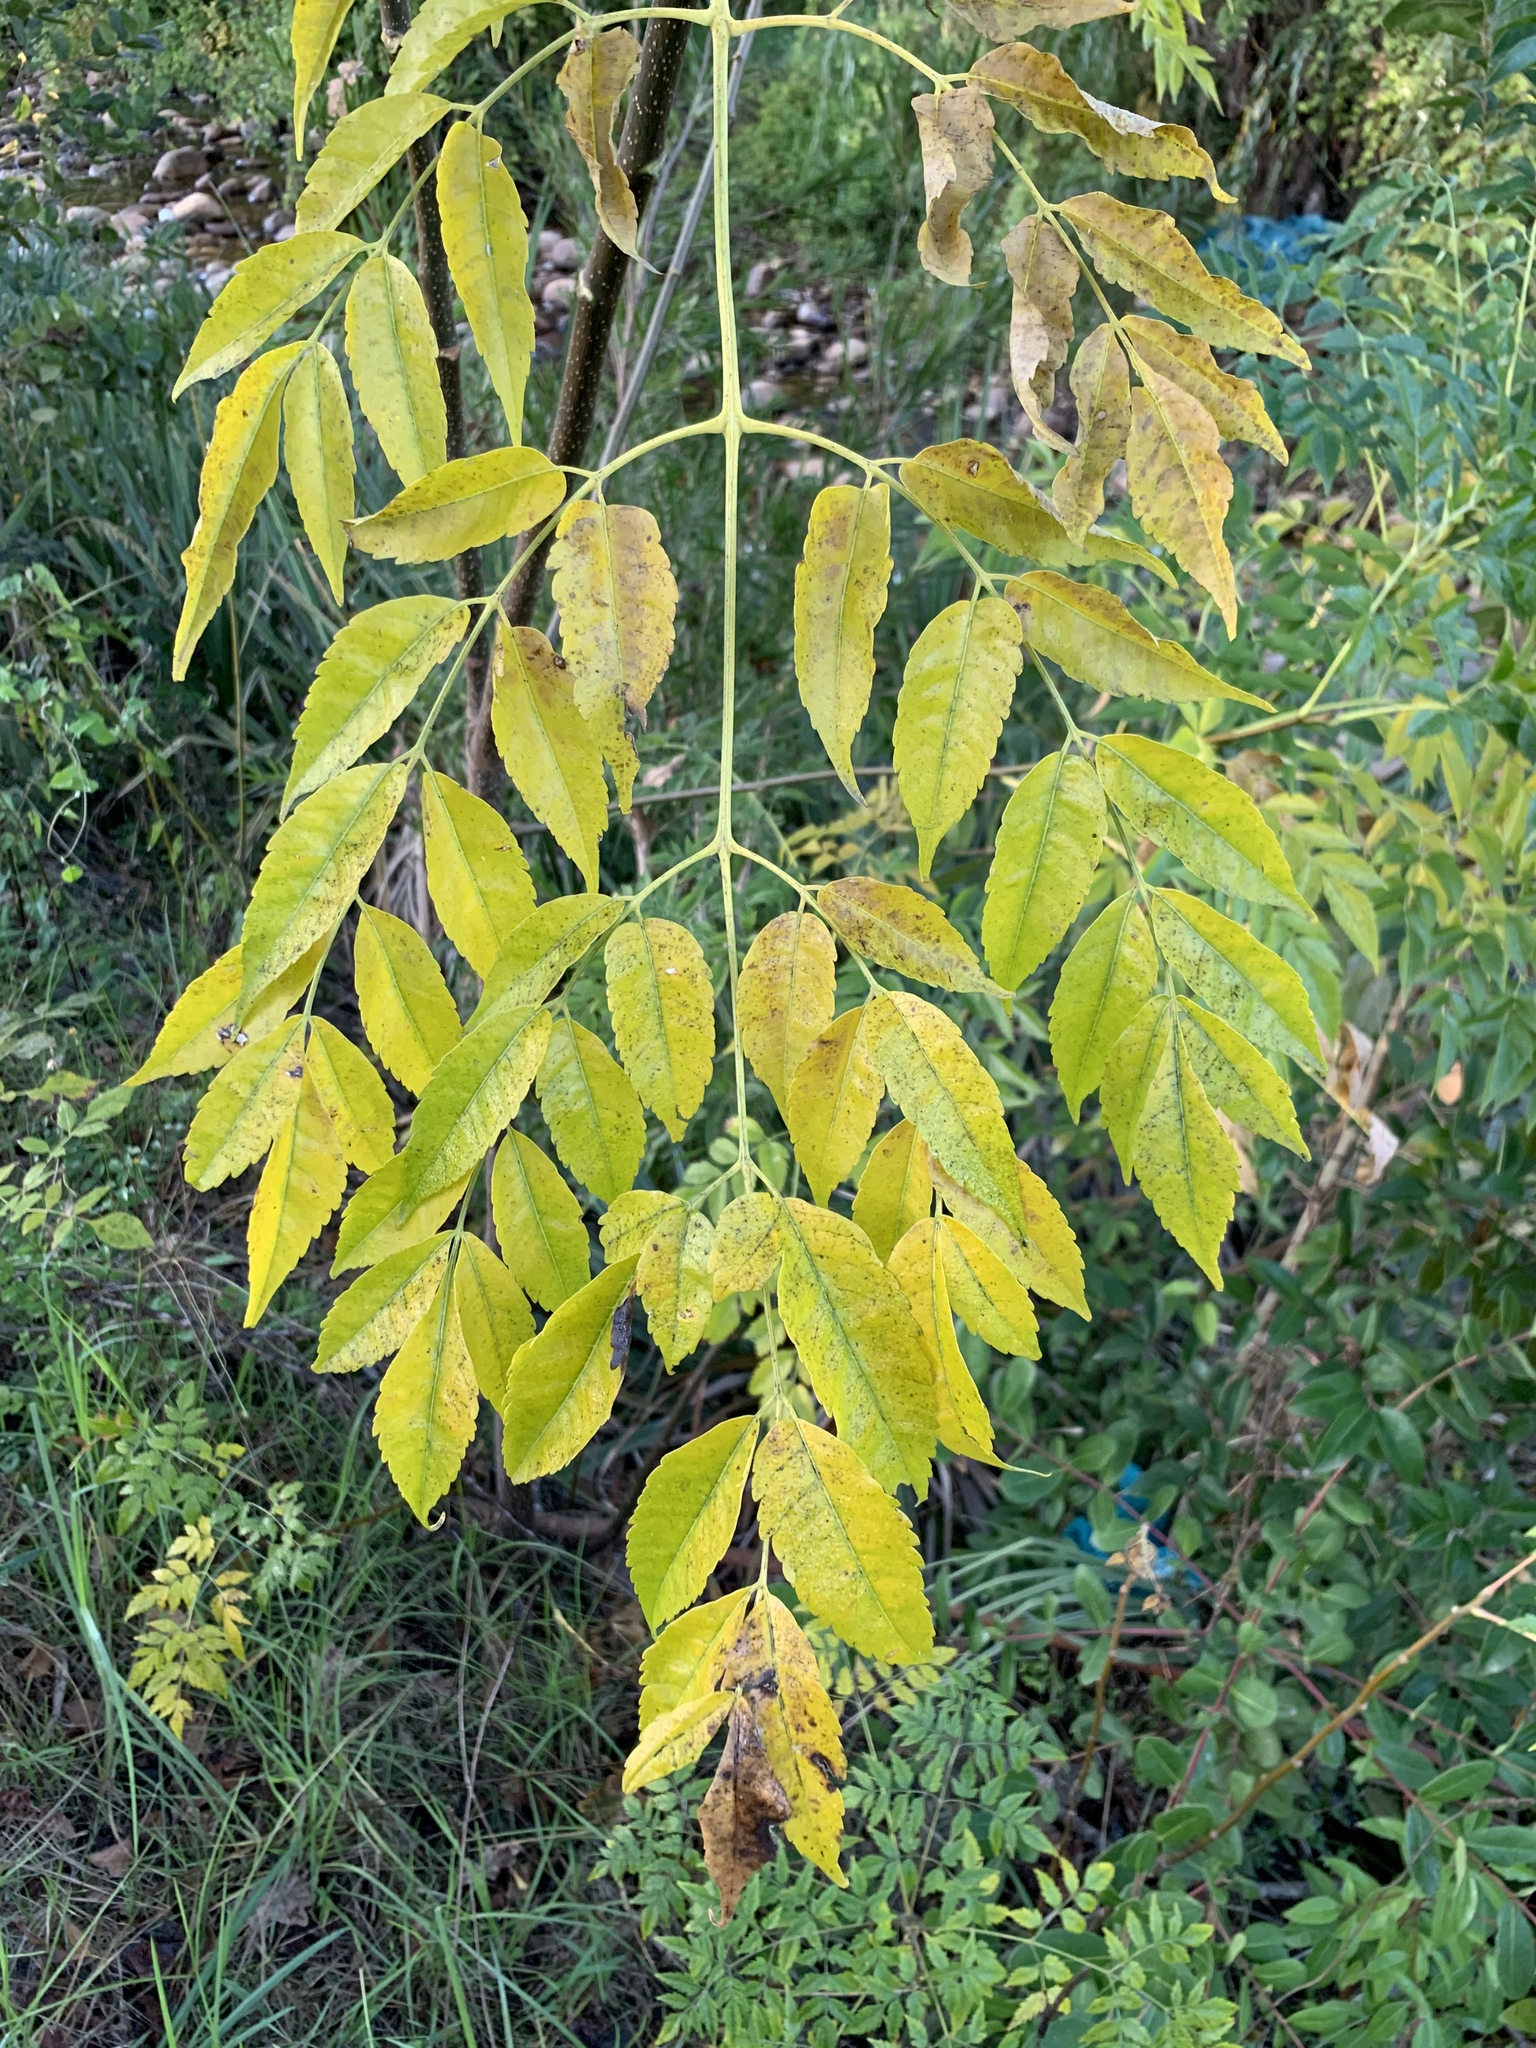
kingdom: Plantae
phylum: Tracheophyta
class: Magnoliopsida
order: Sapindales
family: Meliaceae
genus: Melia
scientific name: Melia azedarach
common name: Chinaberrytree
